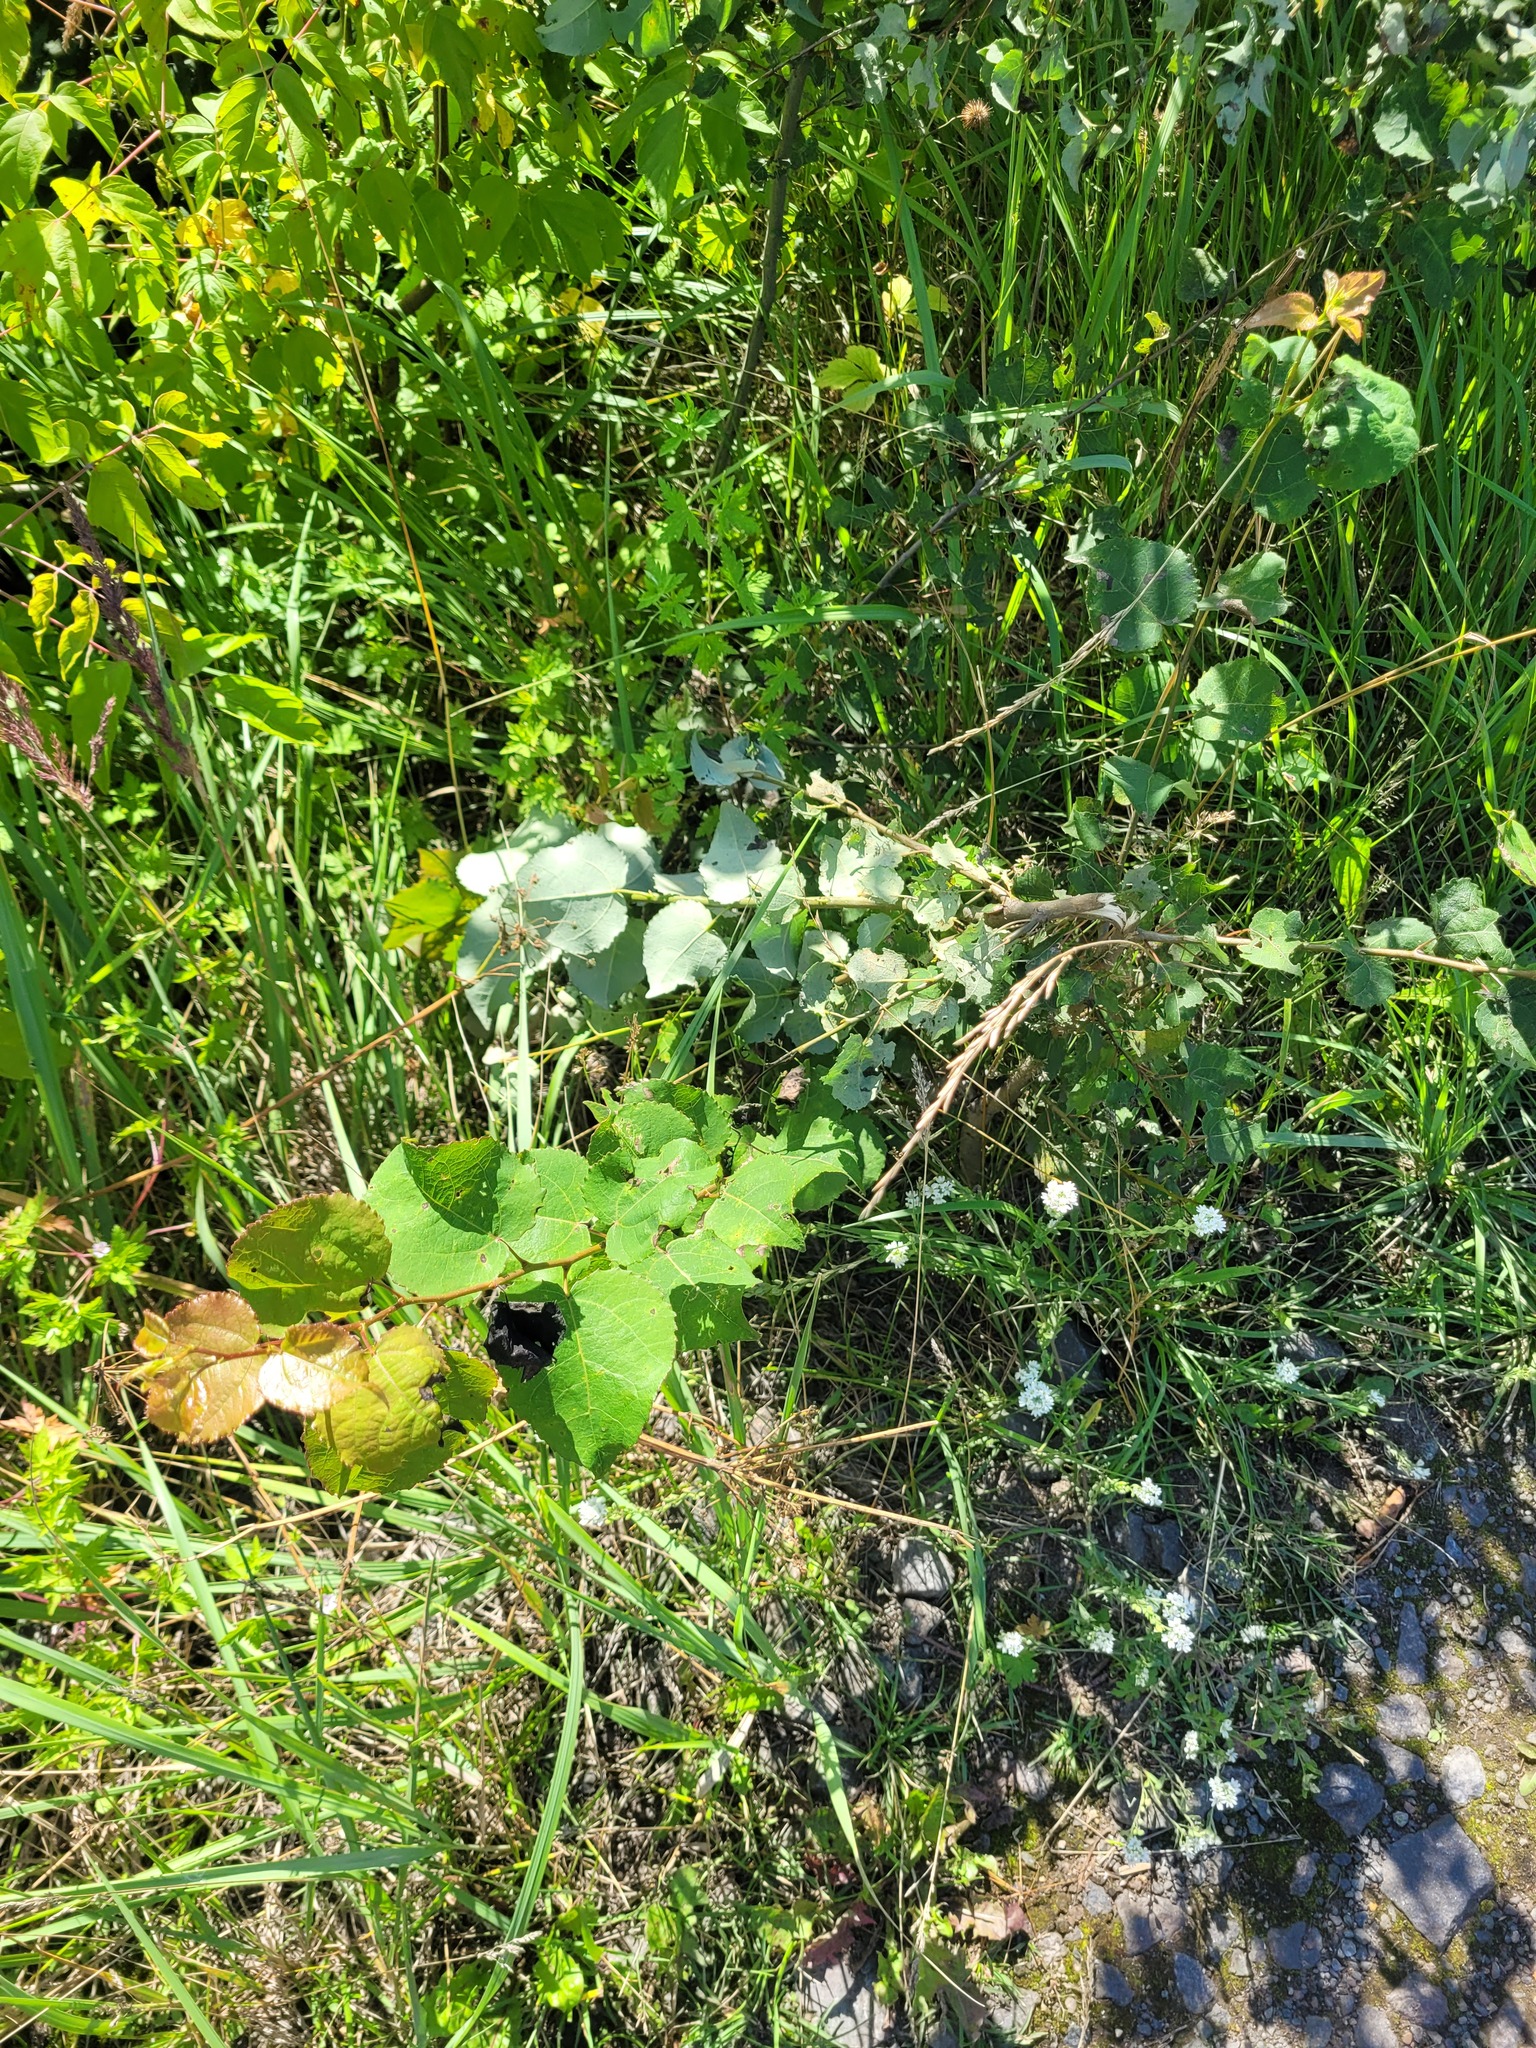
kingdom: Plantae
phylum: Tracheophyta
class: Magnoliopsida
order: Malpighiales
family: Salicaceae
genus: Populus
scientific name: Populus tremula
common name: European aspen
